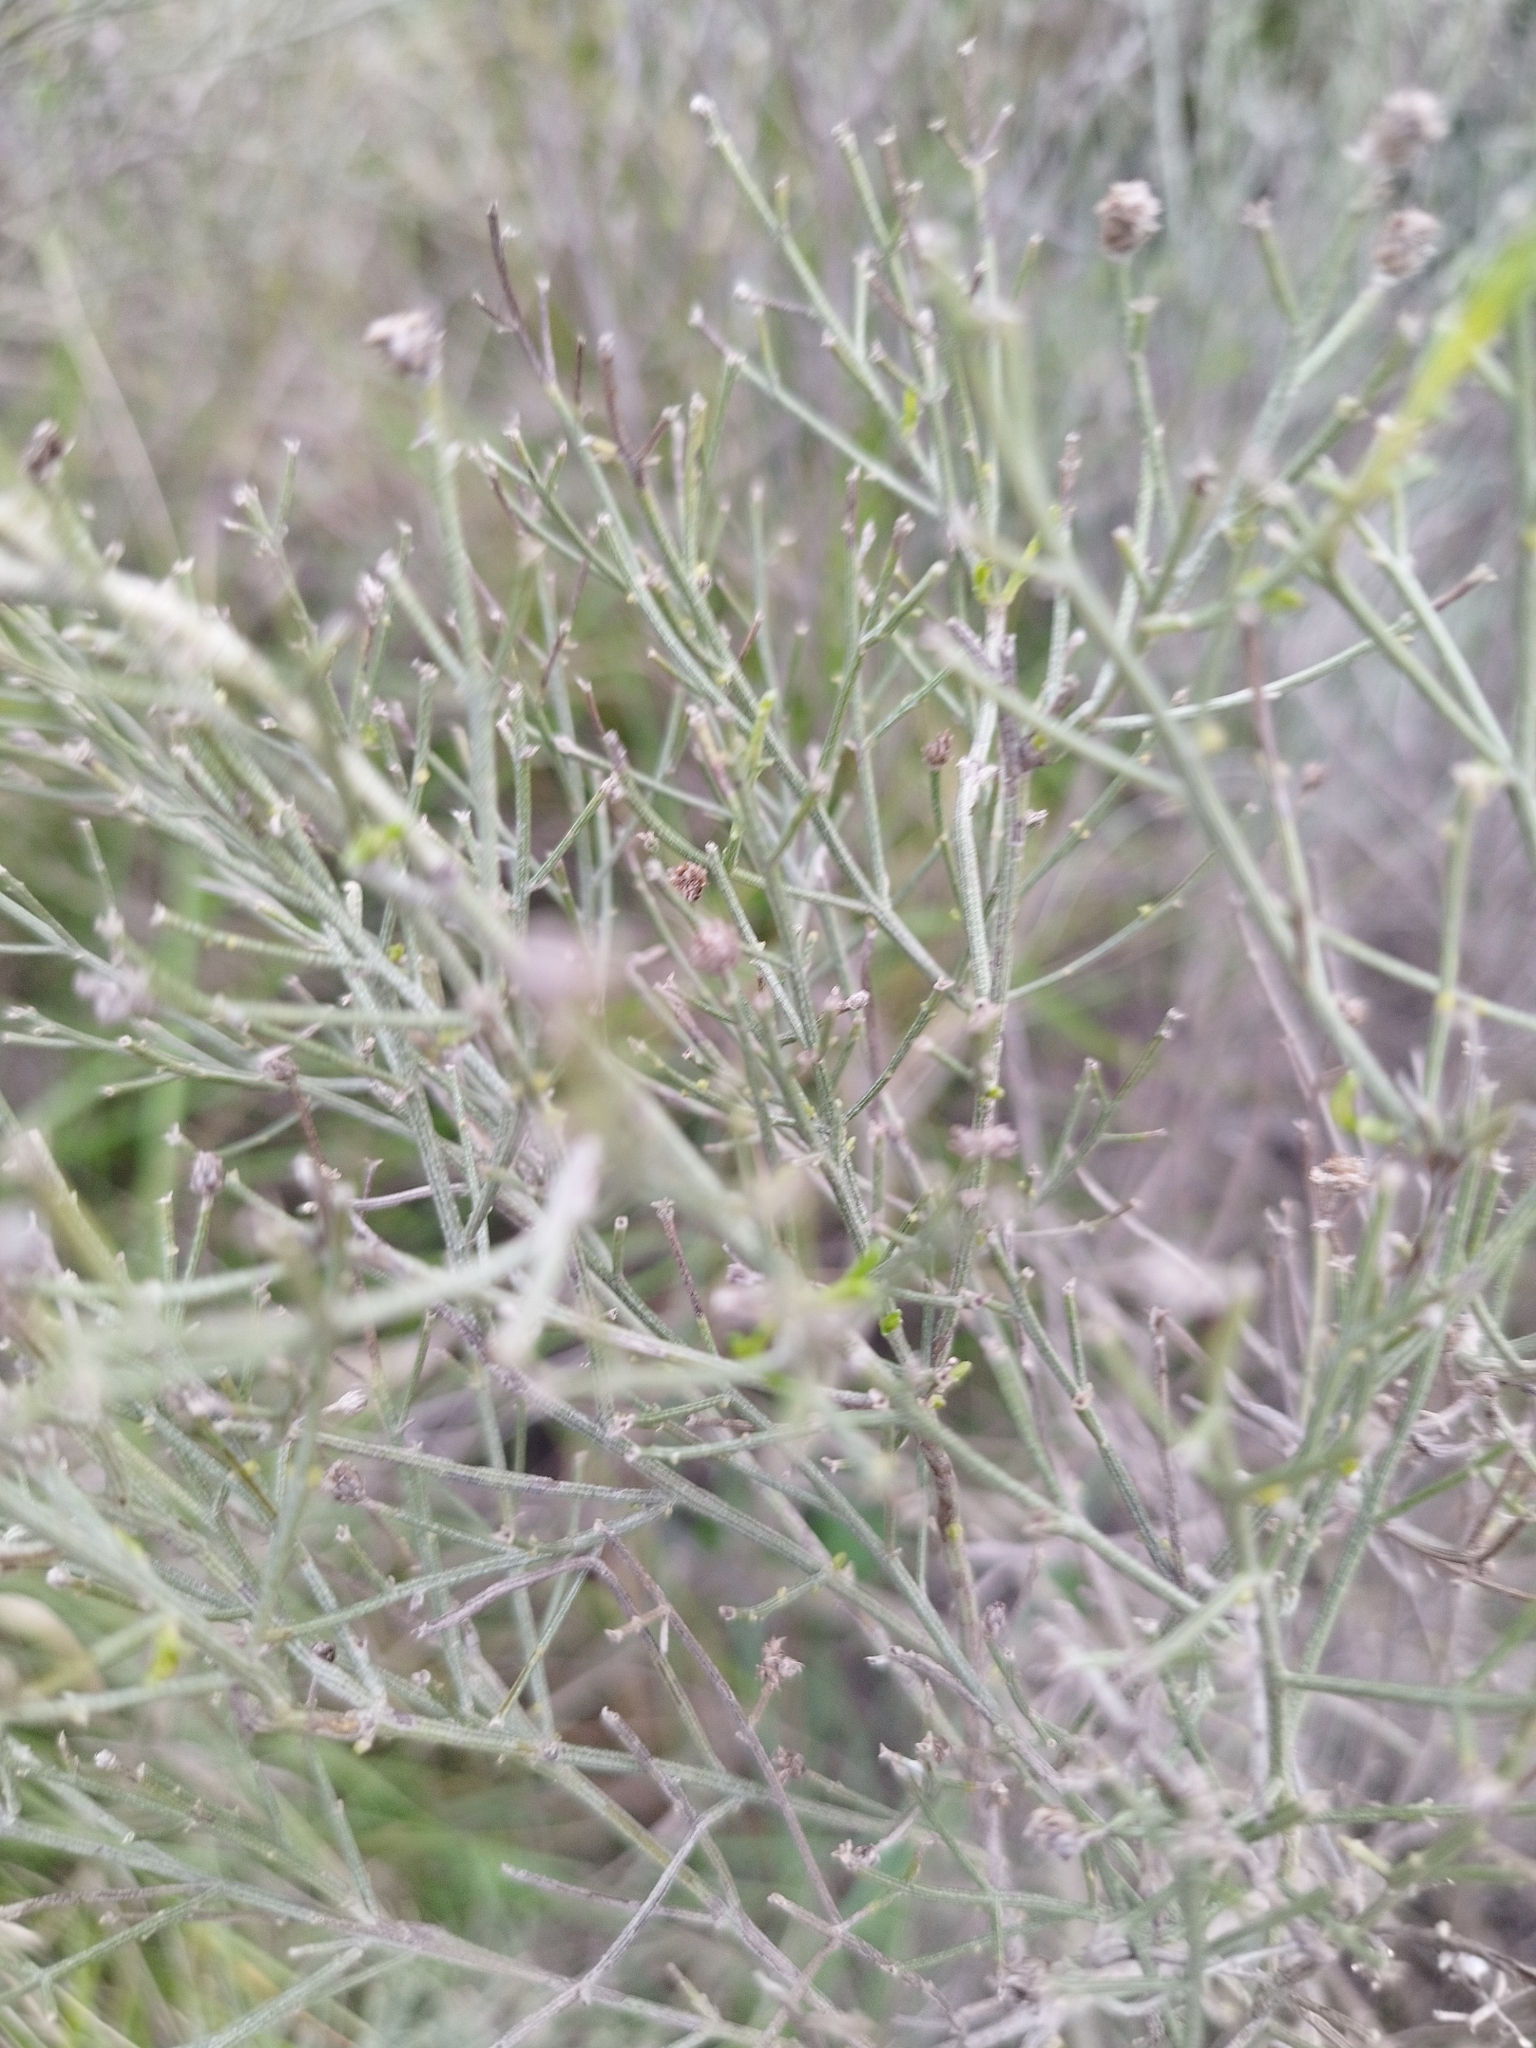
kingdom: Plantae
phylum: Tracheophyta
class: Magnoliopsida
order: Asterales
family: Asteraceae
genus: Baccharis
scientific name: Baccharis notosergila
